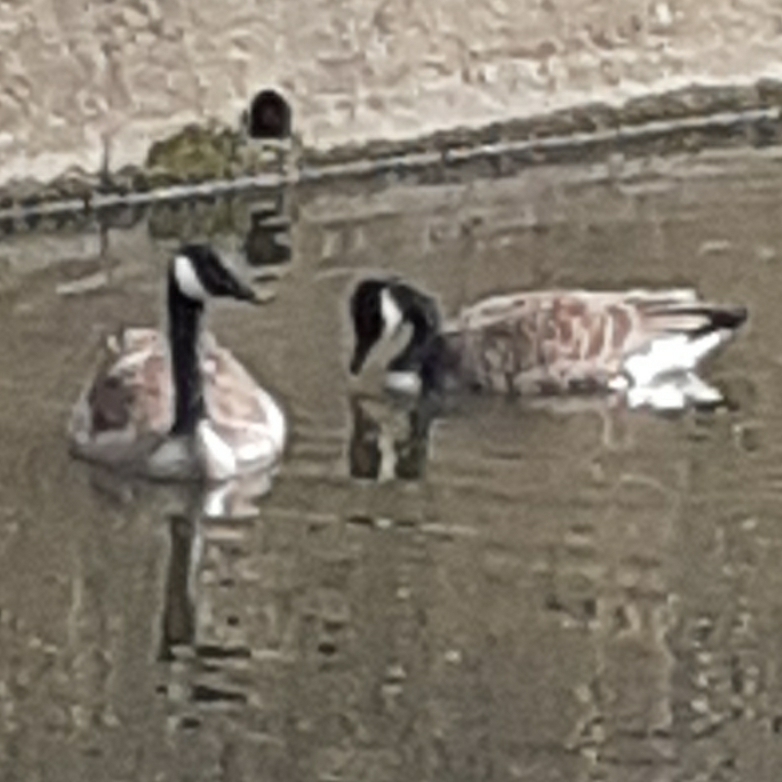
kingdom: Animalia
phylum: Chordata
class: Aves
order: Anseriformes
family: Anatidae
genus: Branta
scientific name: Branta canadensis
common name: Canada goose
